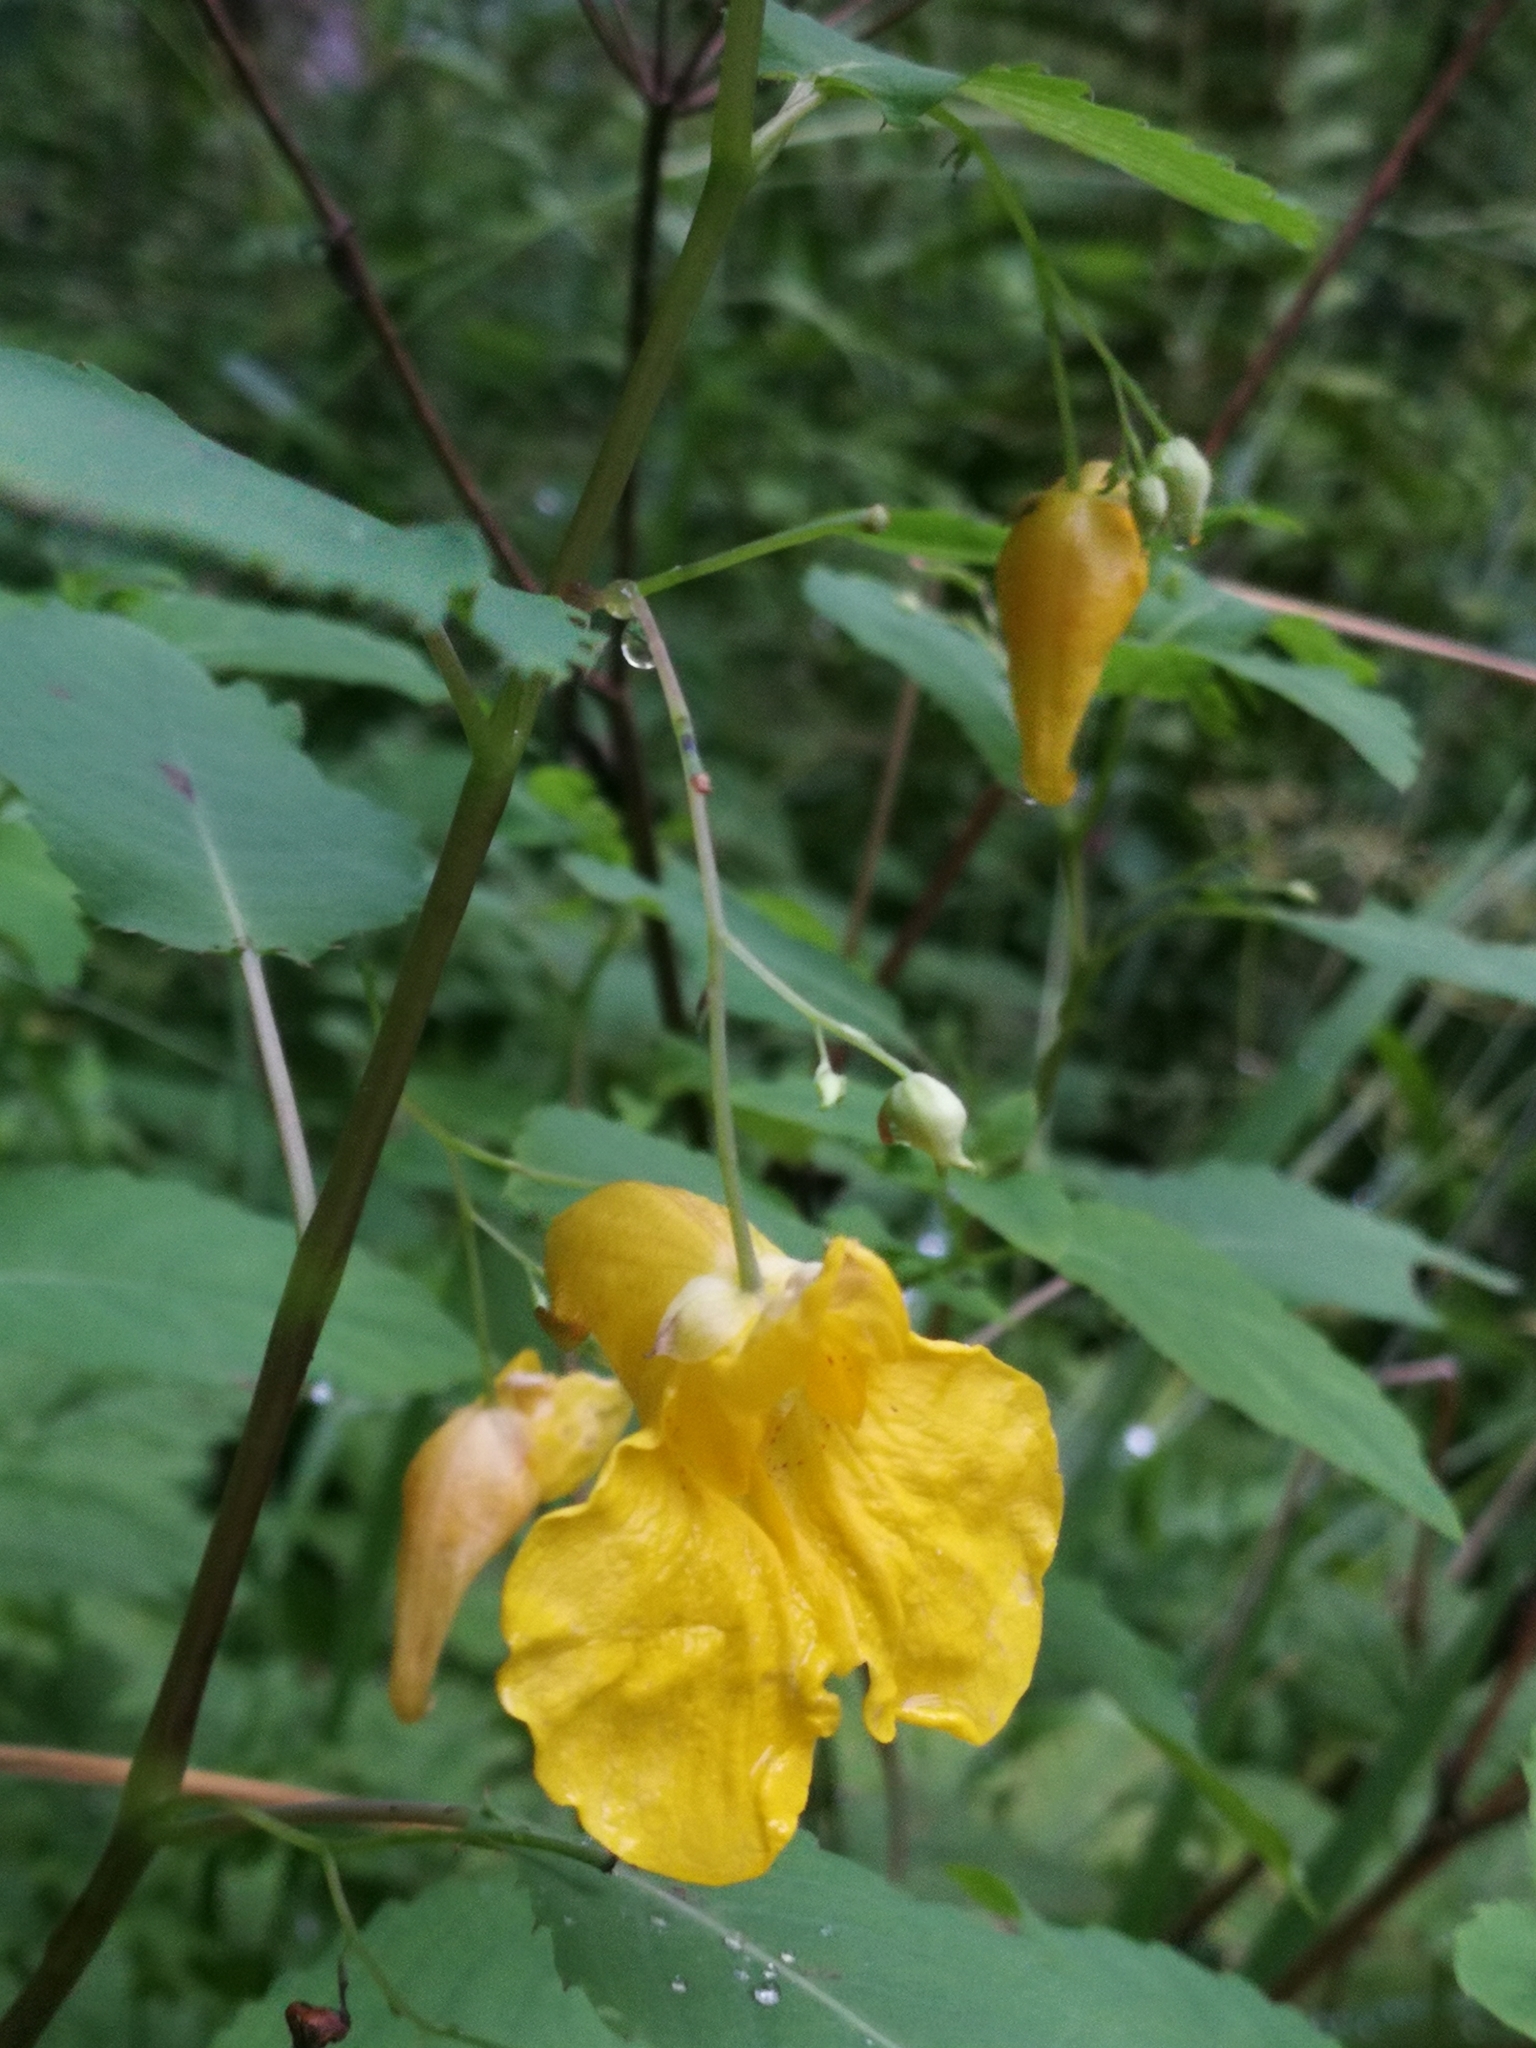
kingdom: Plantae
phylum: Tracheophyta
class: Magnoliopsida
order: Ericales
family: Balsaminaceae
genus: Impatiens
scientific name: Impatiens noli-tangere
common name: Touch-me-not balsam
